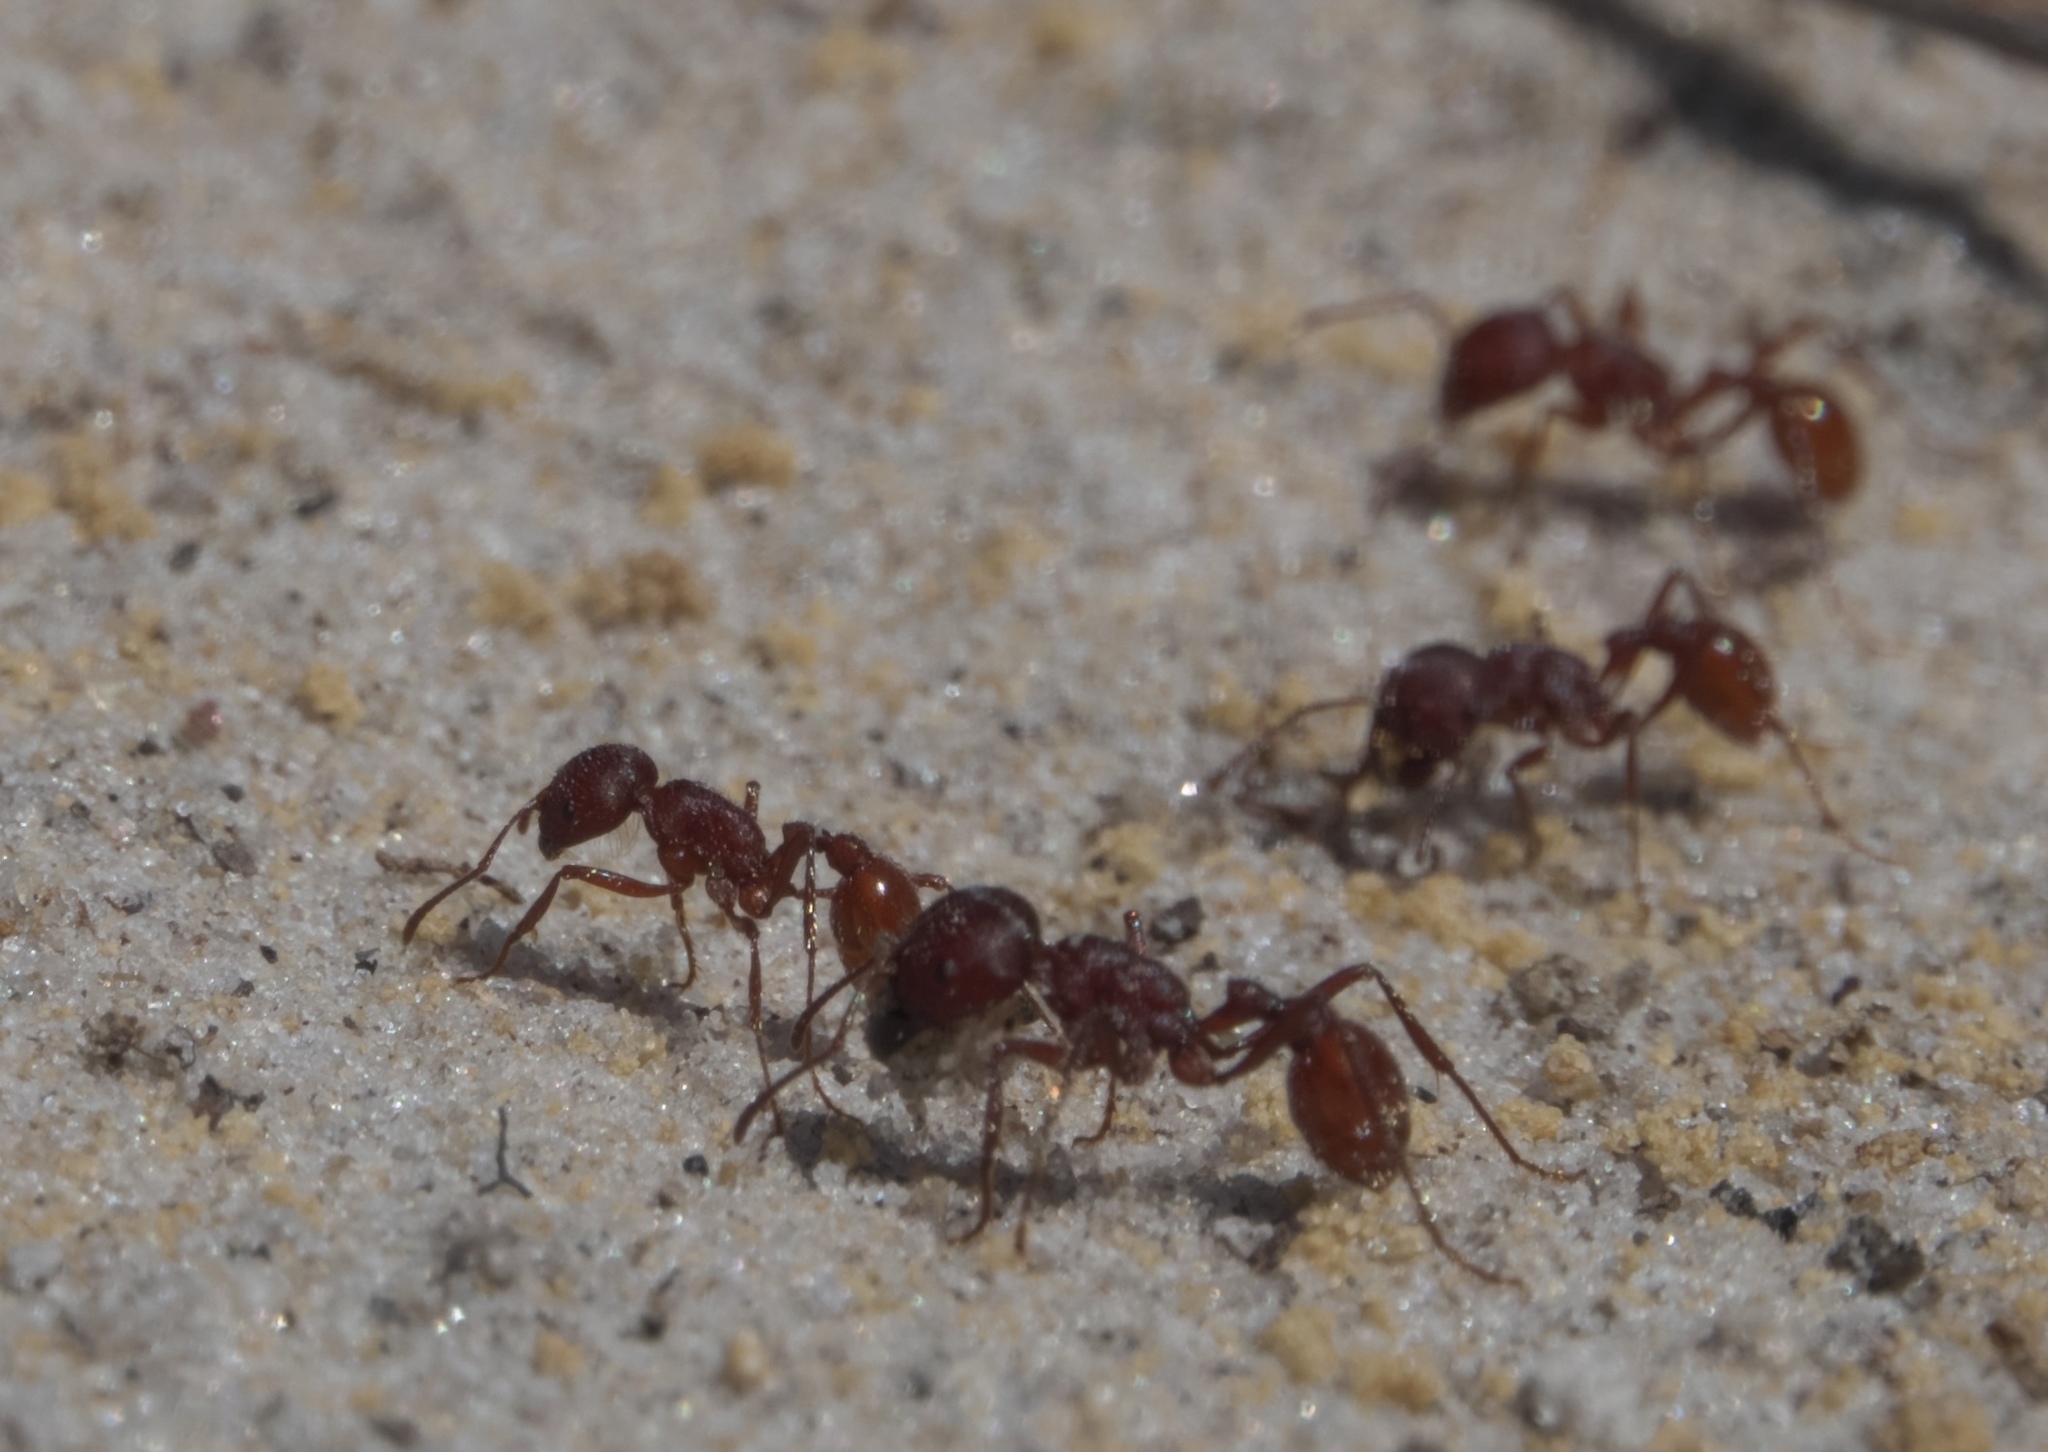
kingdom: Animalia
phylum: Arthropoda
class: Insecta
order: Hymenoptera
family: Formicidae
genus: Pogonomyrmex
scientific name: Pogonomyrmex badius
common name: Florida harvester ant
